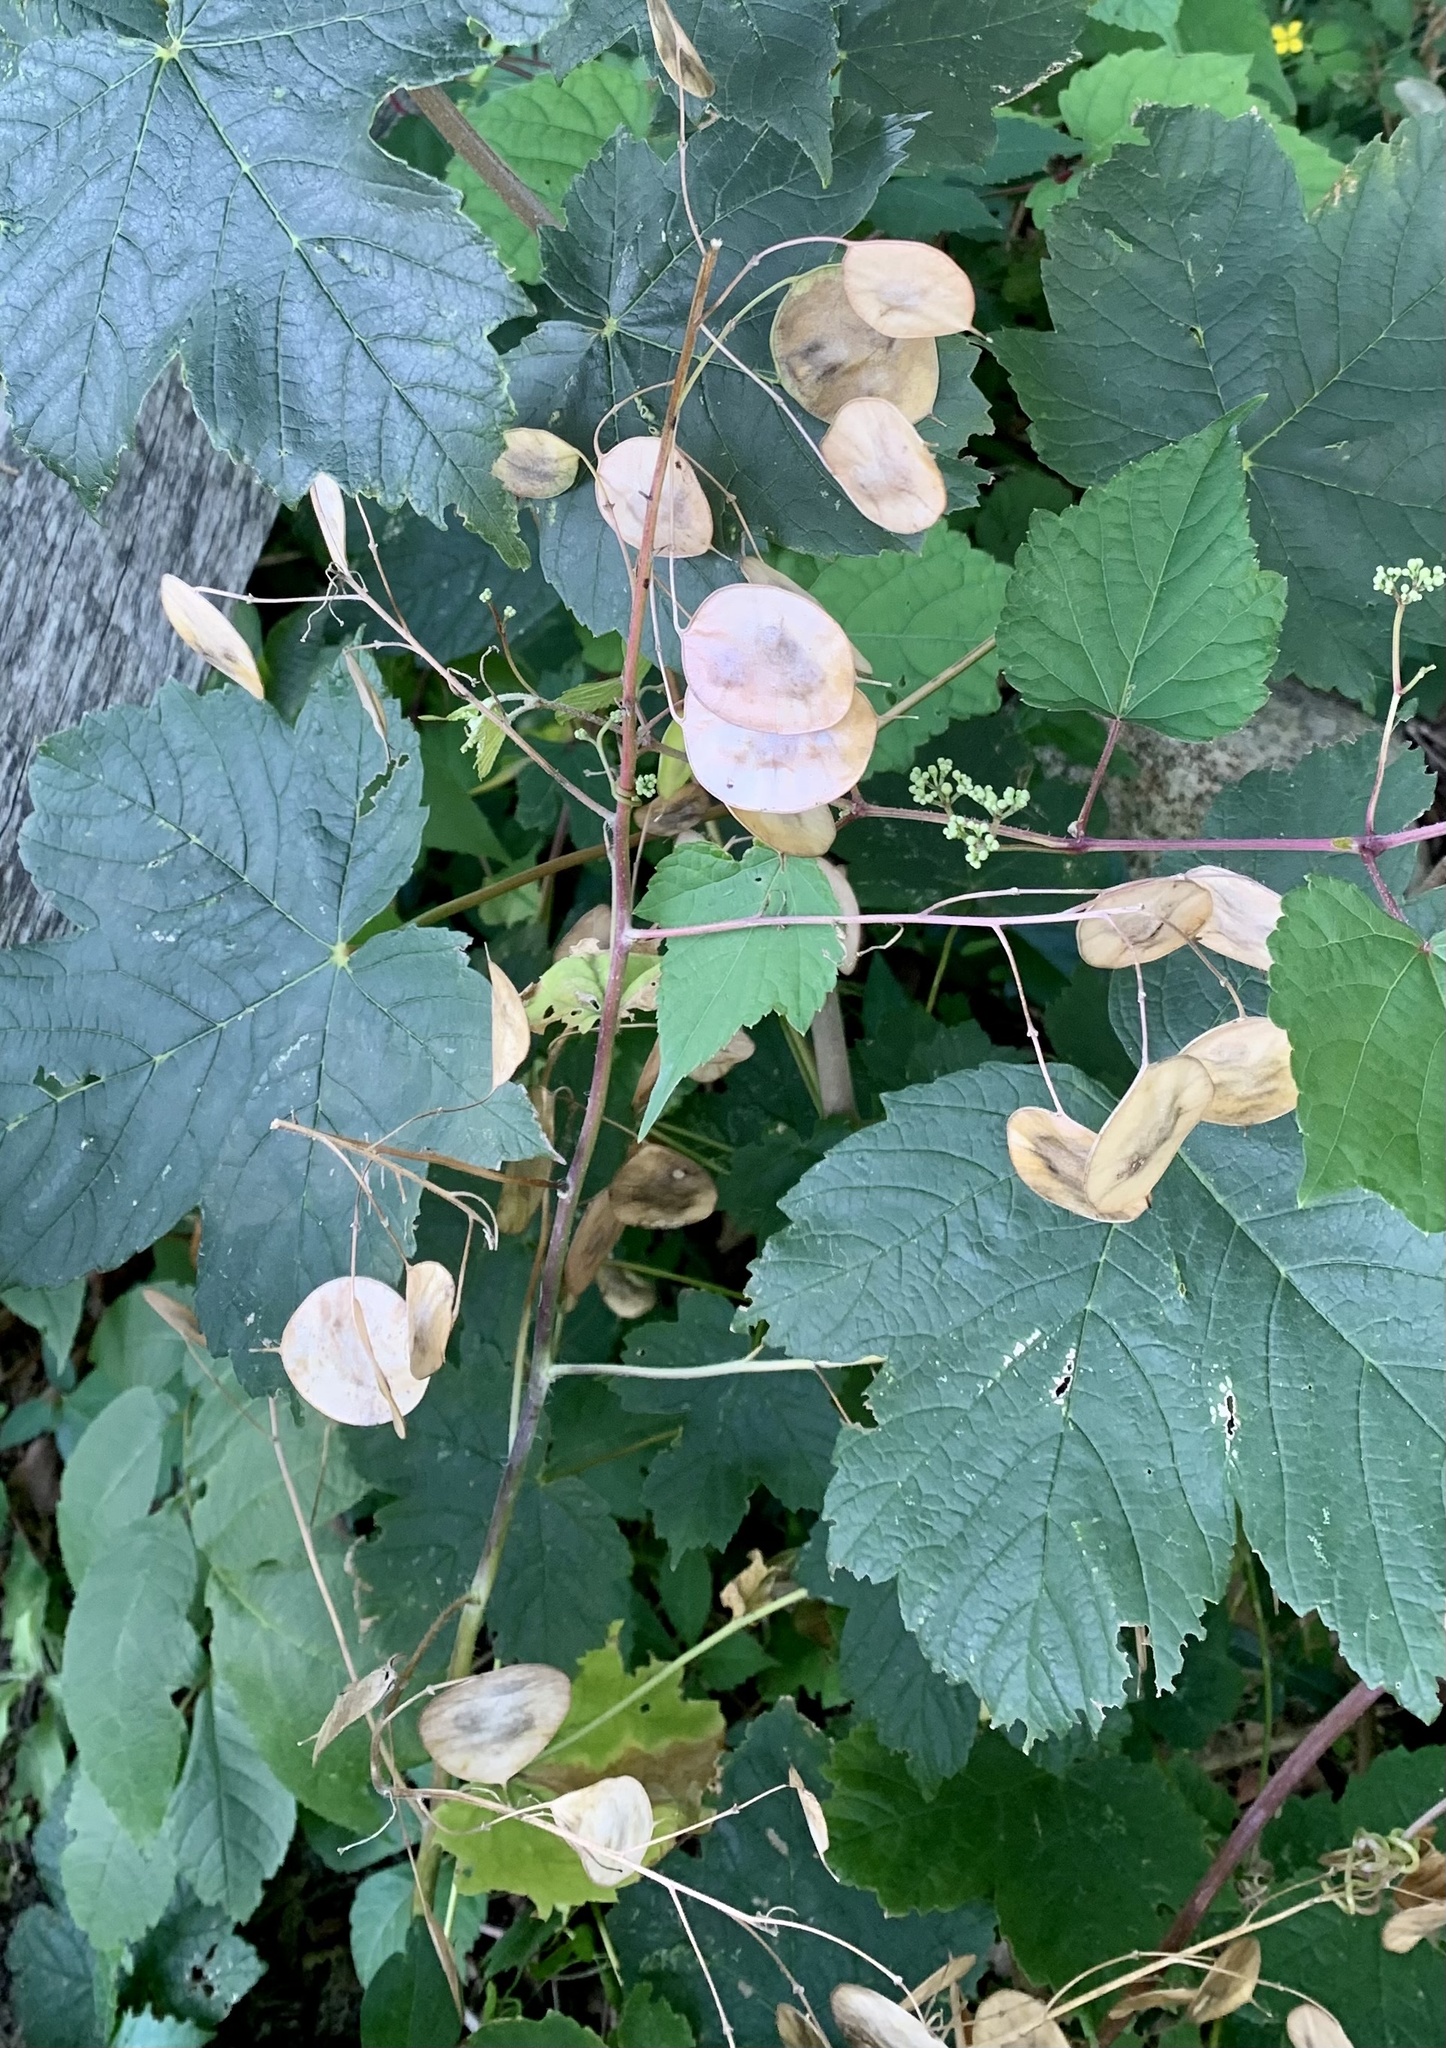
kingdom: Plantae
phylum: Tracheophyta
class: Magnoliopsida
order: Brassicales
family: Brassicaceae
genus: Lunaria
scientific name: Lunaria annua
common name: Honesty
